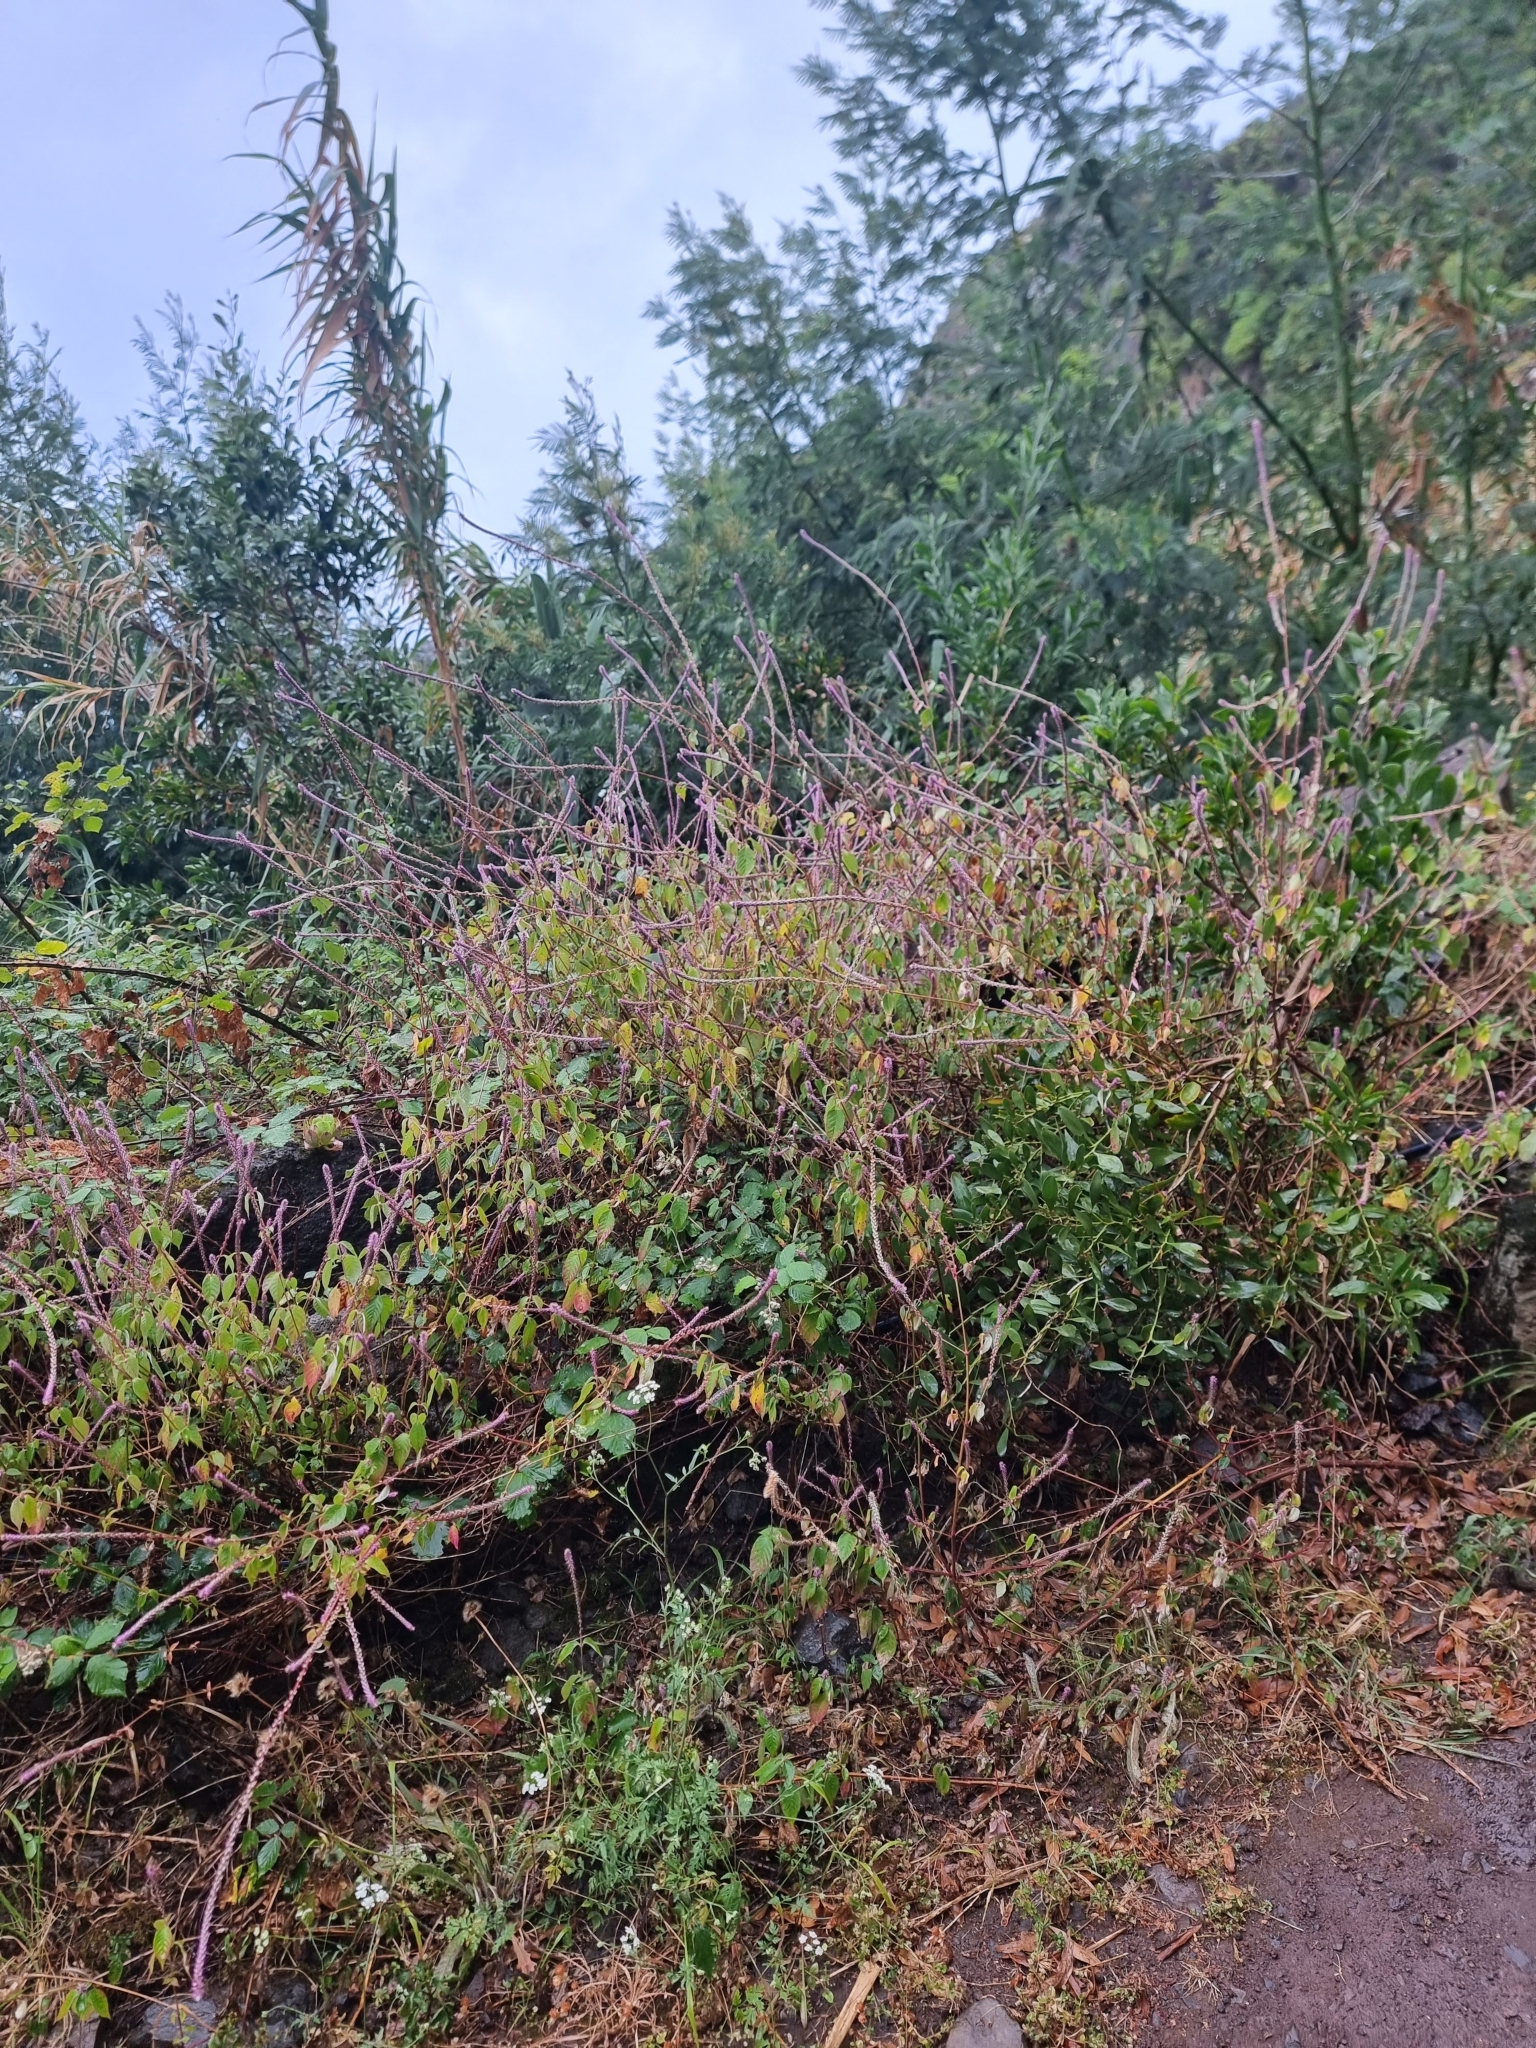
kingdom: Plantae
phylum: Tracheophyta
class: Magnoliopsida
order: Caryophyllales
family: Amaranthaceae
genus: Achyranthes
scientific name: Achyranthes aspera
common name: Devil's horsewhip
